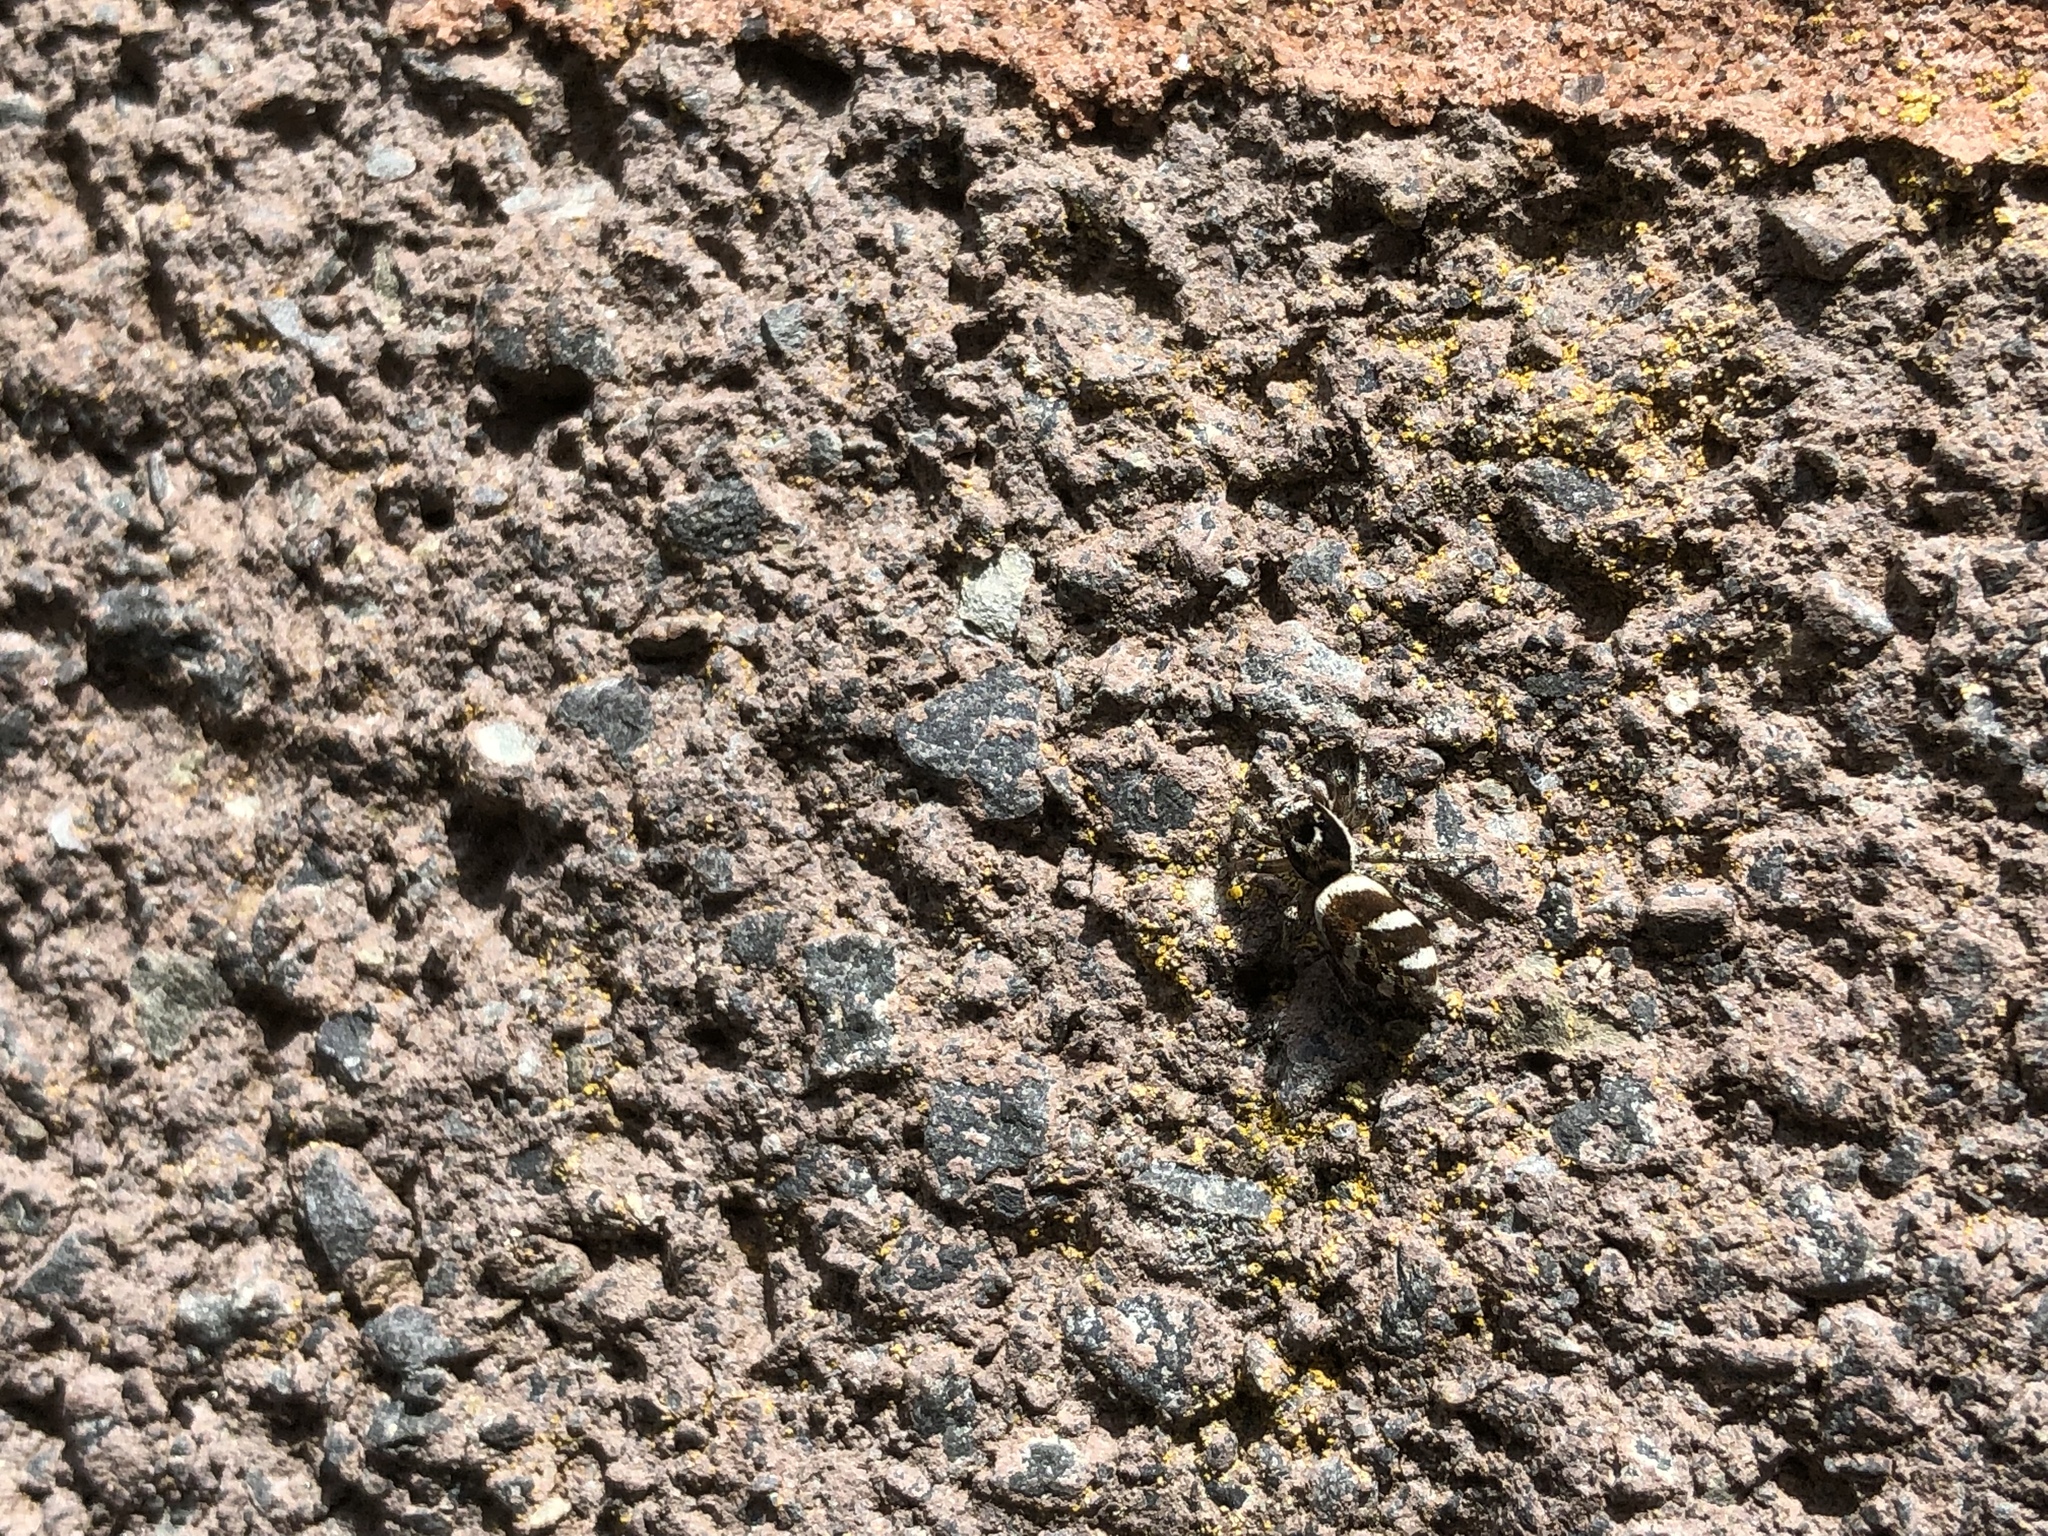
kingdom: Animalia
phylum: Arthropoda
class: Arachnida
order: Araneae
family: Salticidae
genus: Salticus
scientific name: Salticus scenicus
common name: Zebra jumper
